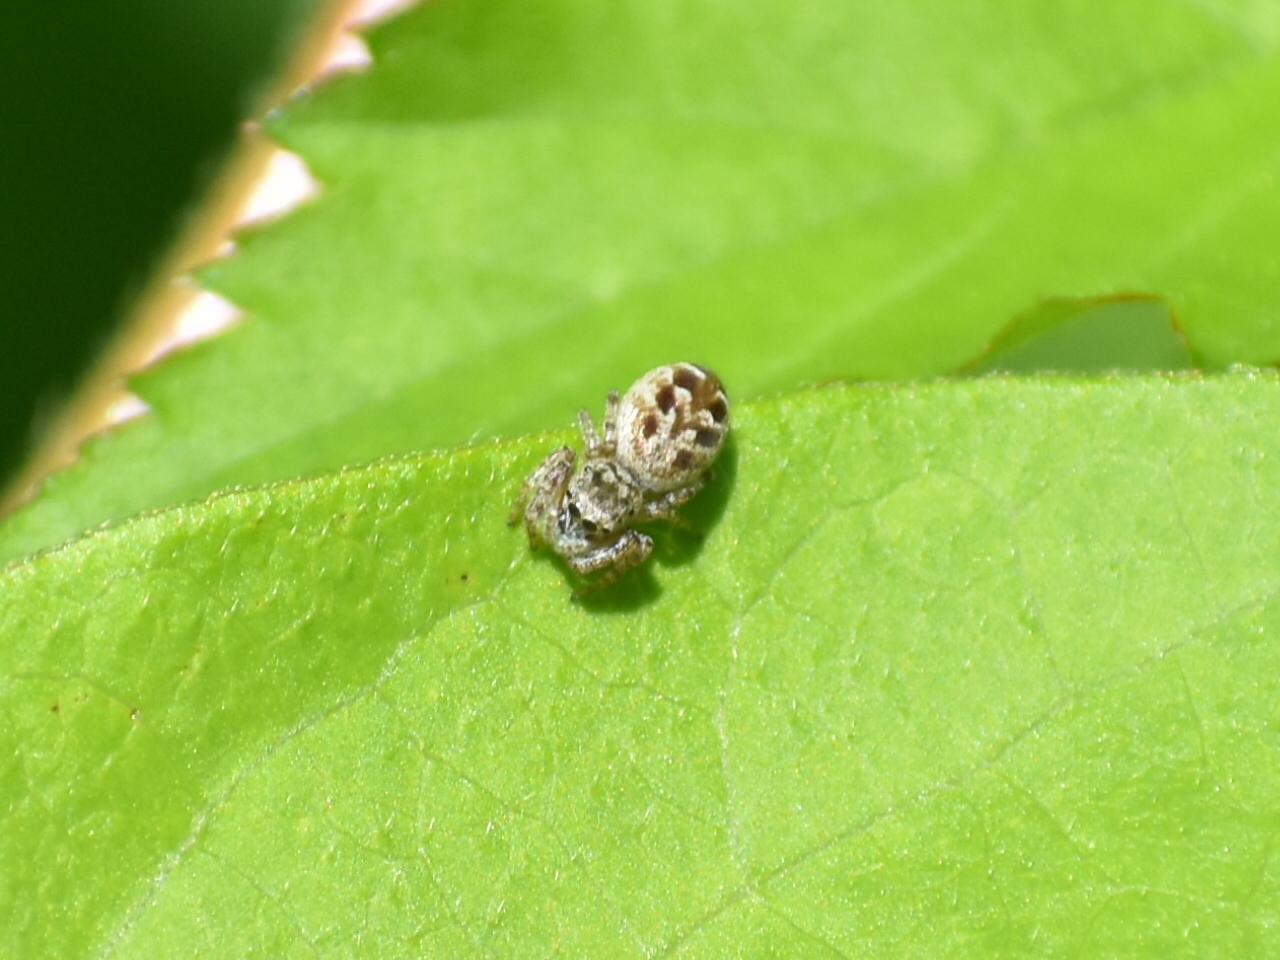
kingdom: Animalia
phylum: Arthropoda
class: Arachnida
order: Araneae
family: Salticidae
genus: Pelegrina
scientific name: Pelegrina proterva
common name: Common white-cheeked jumping spider
